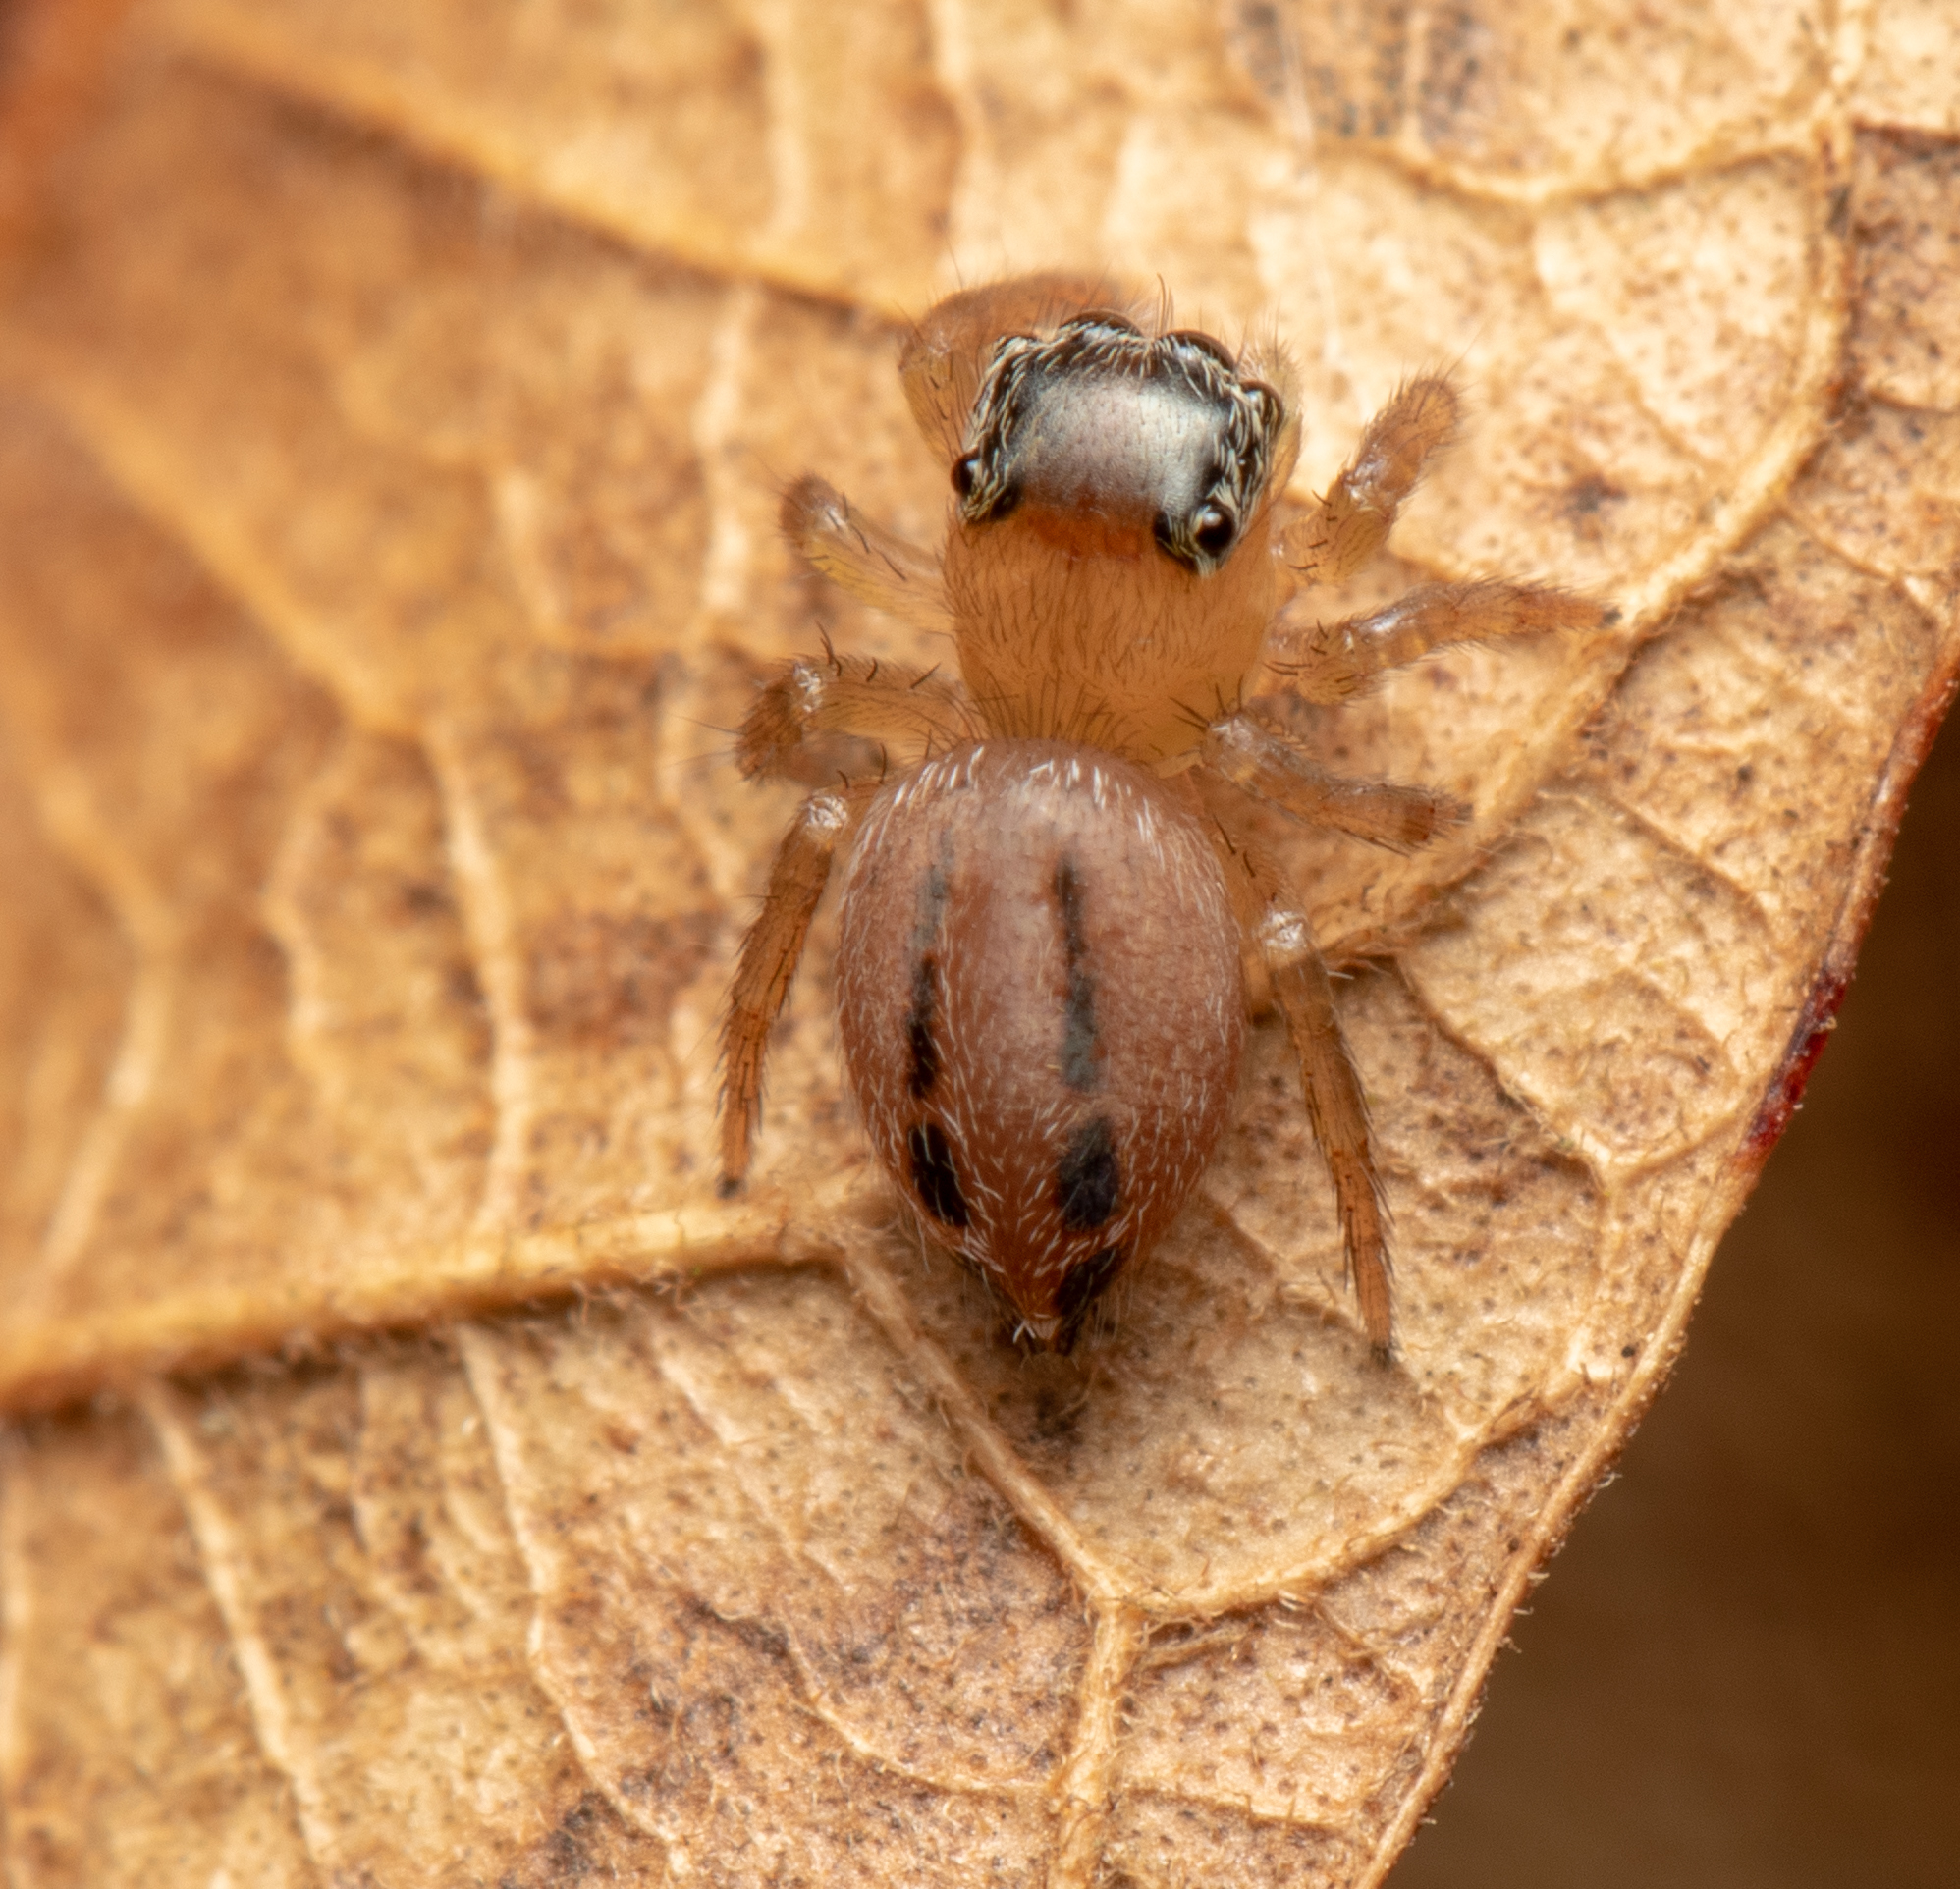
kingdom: Animalia
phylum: Arthropoda
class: Arachnida
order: Araneae
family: Salticidae
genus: Maratus
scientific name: Maratus scutulatus
